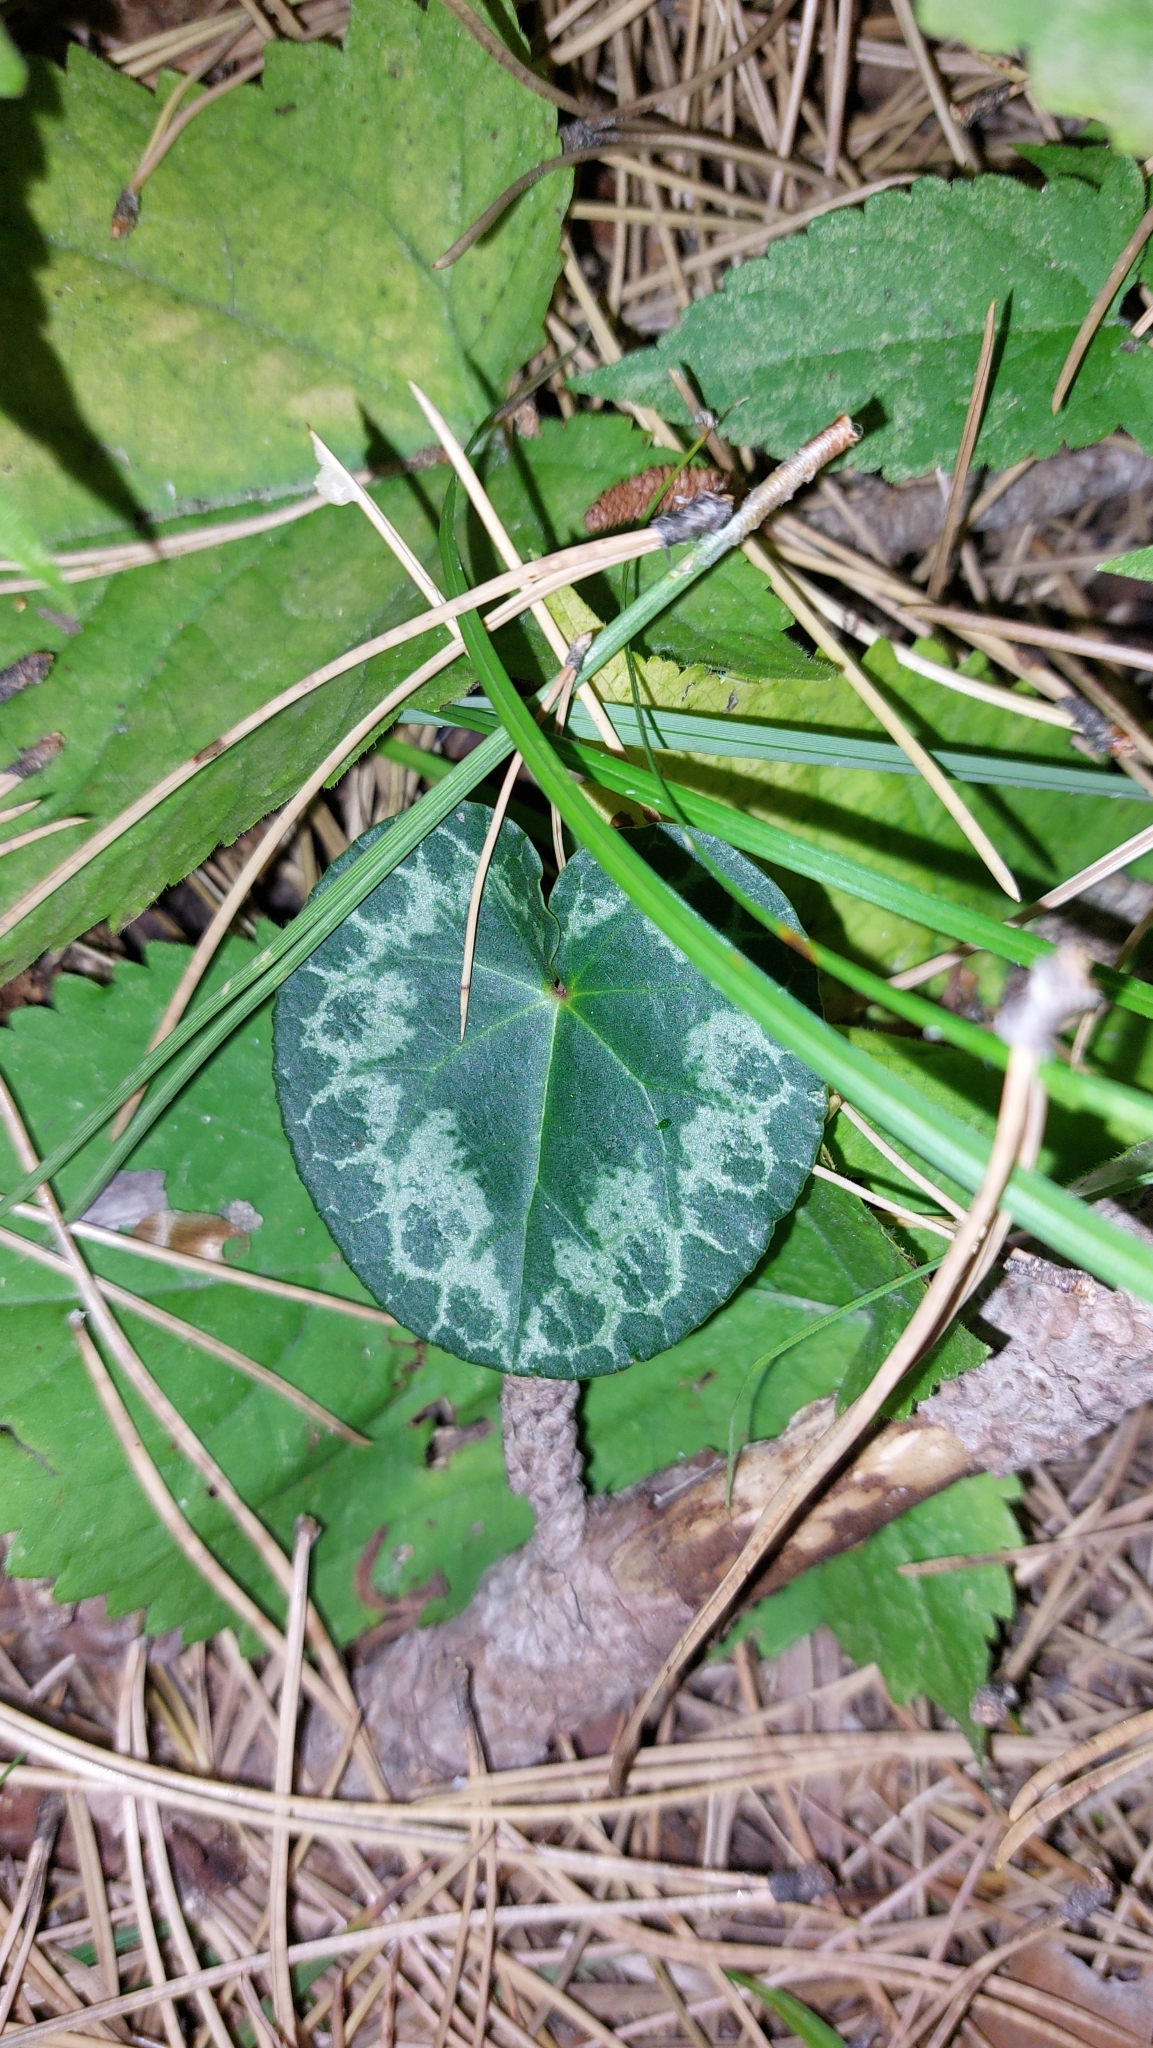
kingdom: Plantae
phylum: Tracheophyta
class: Magnoliopsida
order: Ericales
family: Primulaceae
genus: Cyclamen
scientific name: Cyclamen purpurascens
